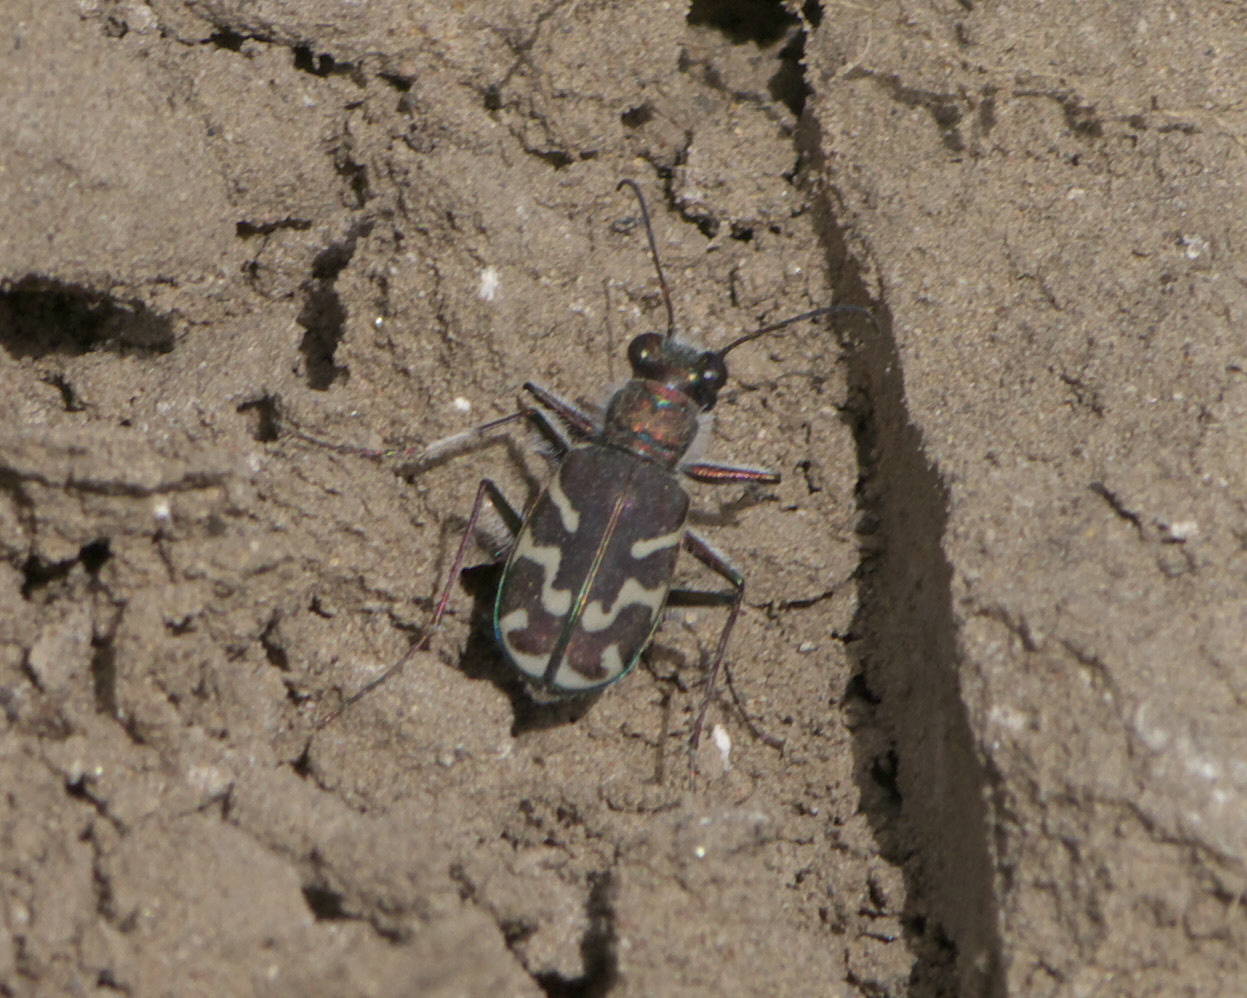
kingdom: Animalia
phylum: Arthropoda
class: Insecta
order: Coleoptera
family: Carabidae
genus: Cicindela
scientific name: Cicindela tranquebarica
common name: Oblique-lined tiger beetle
